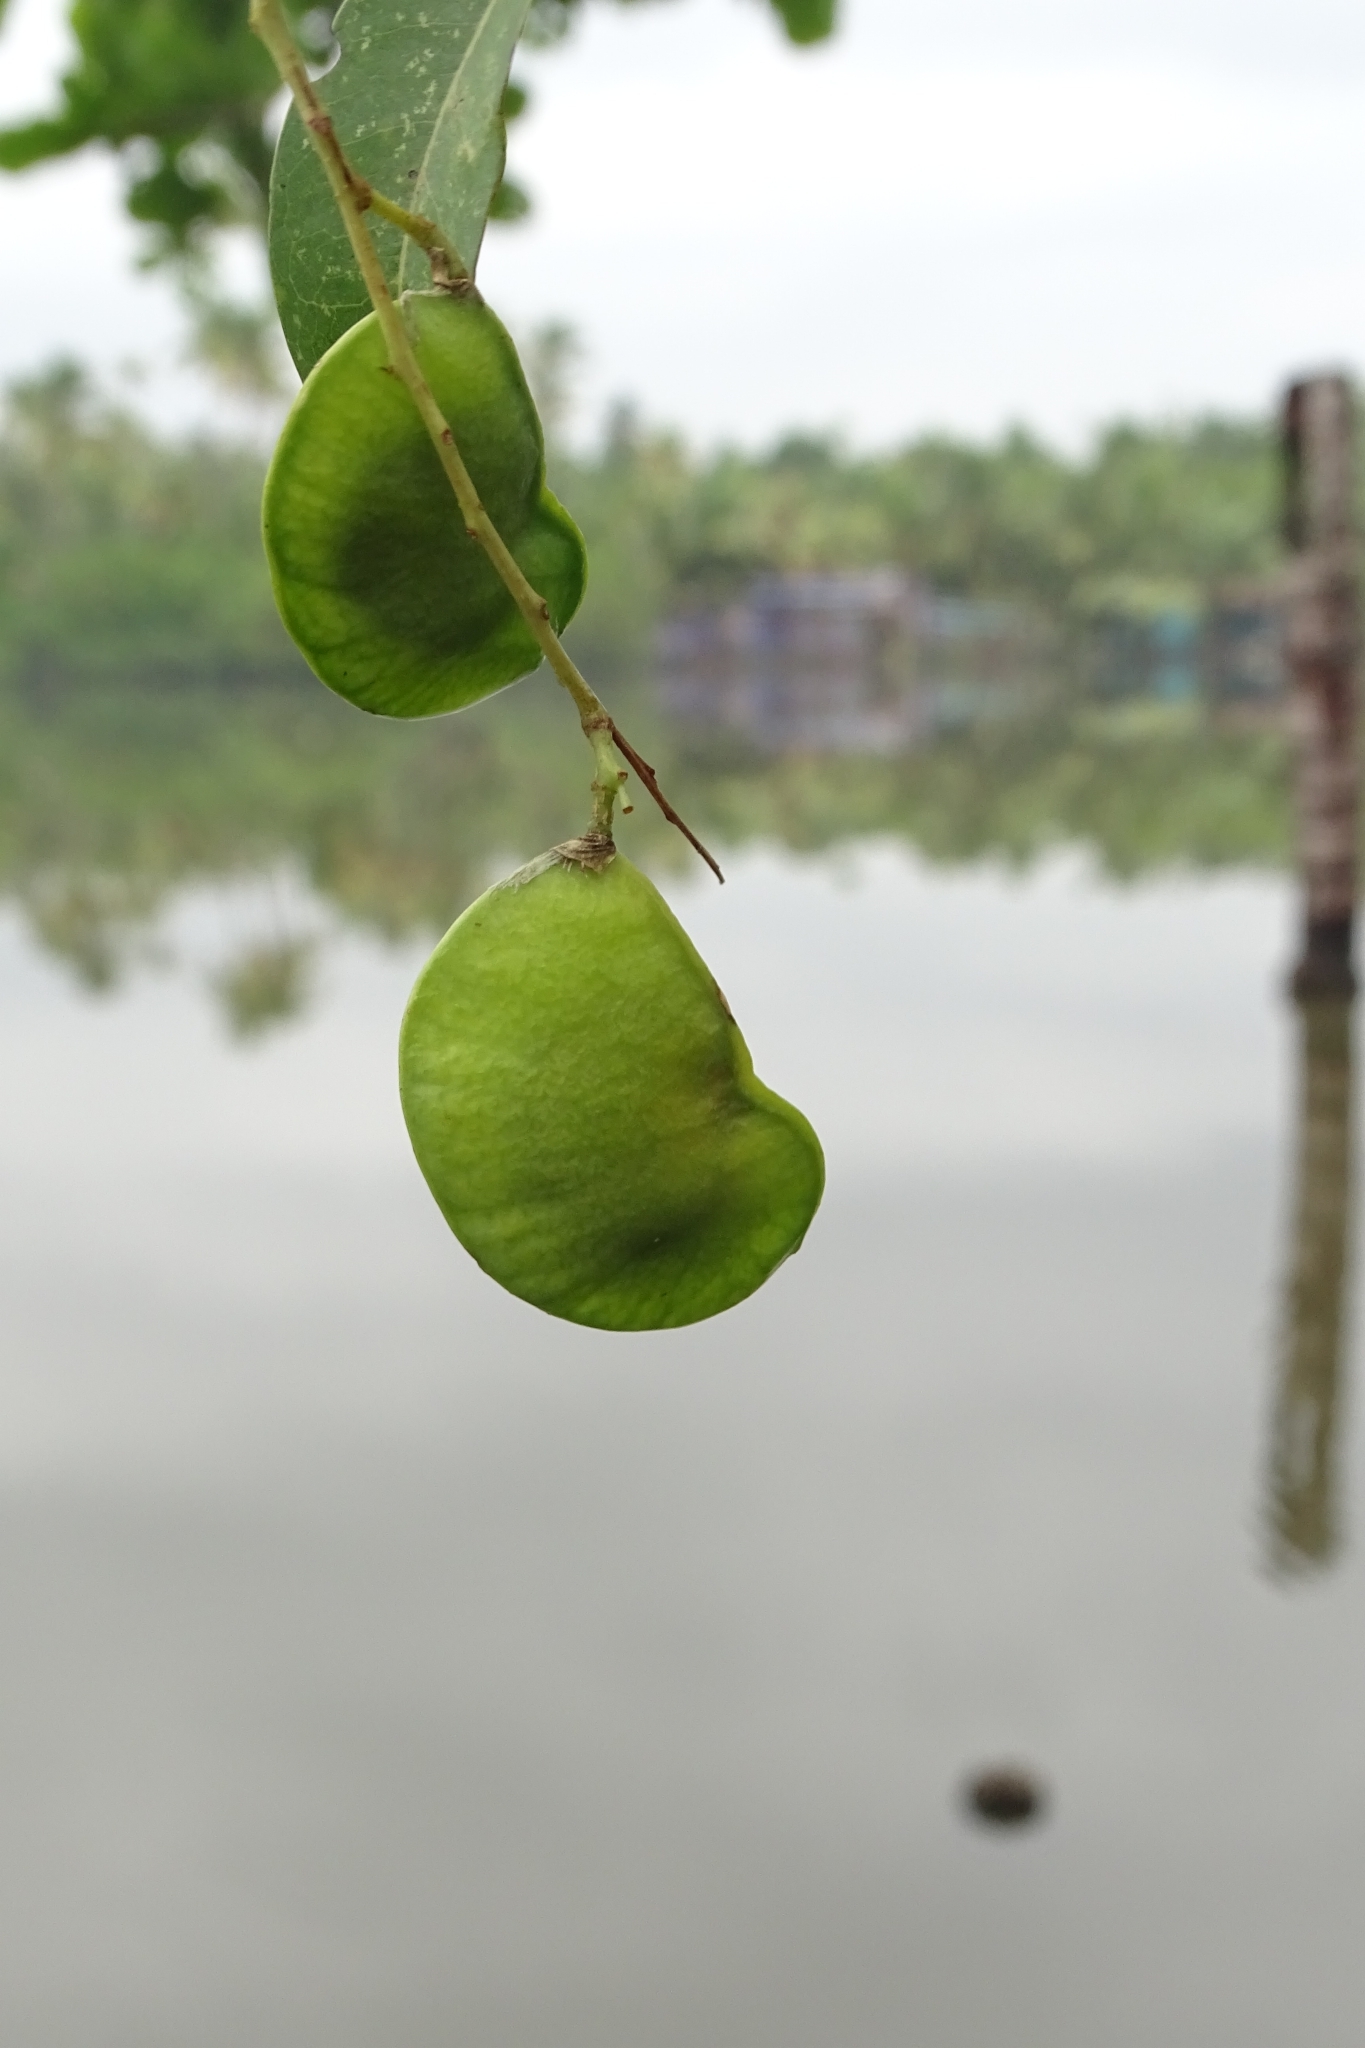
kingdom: Plantae
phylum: Tracheophyta
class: Magnoliopsida
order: Fabales
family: Fabaceae
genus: Derris
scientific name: Derris trifoliata
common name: Three-leaf derris
